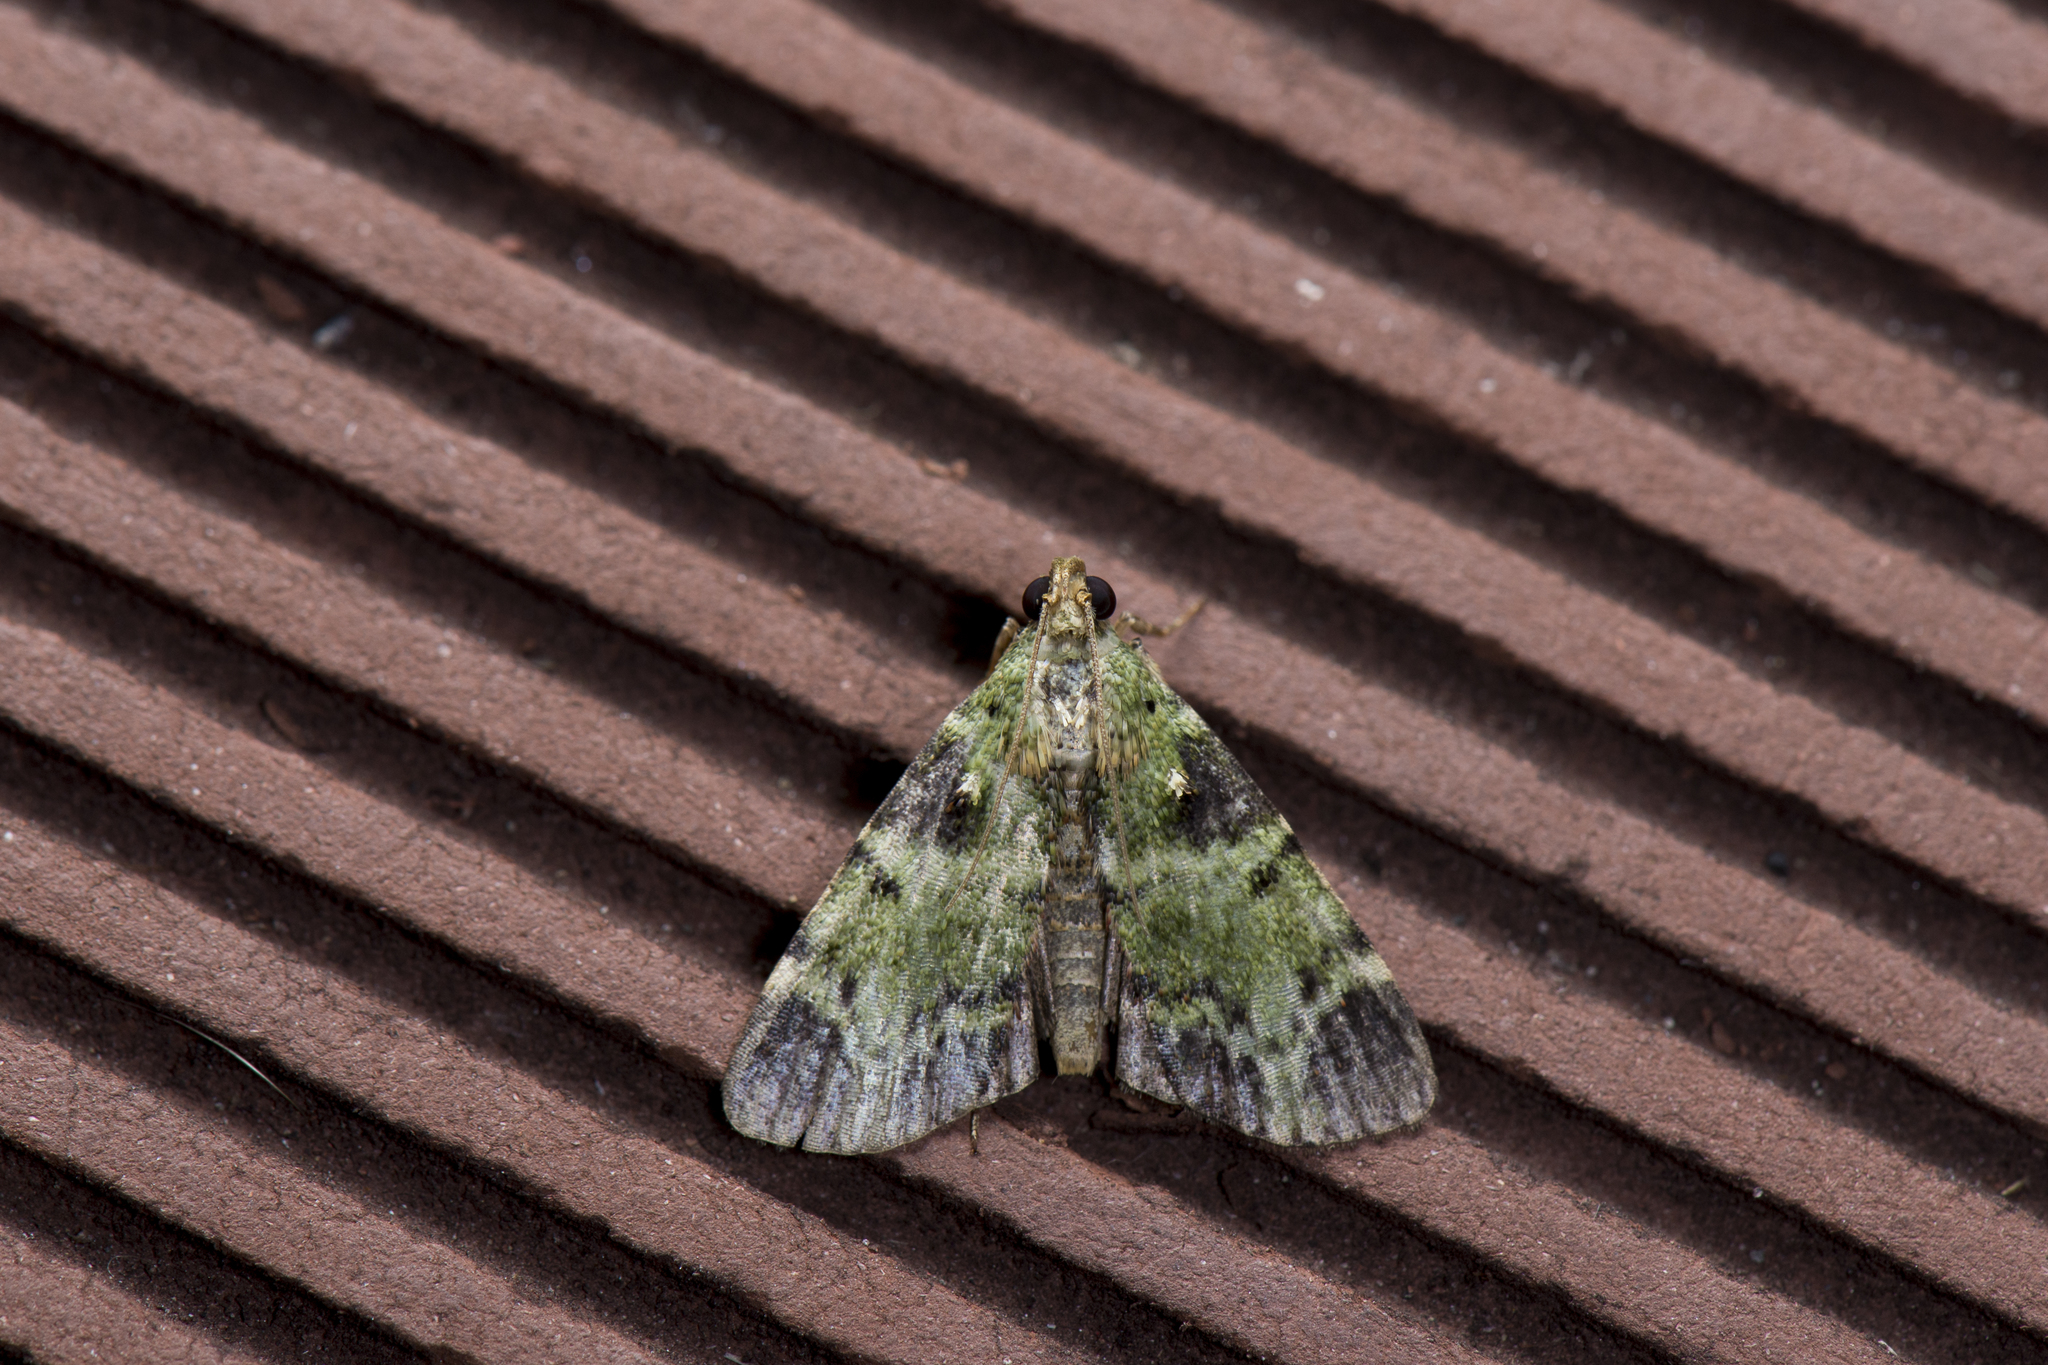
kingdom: Animalia
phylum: Arthropoda
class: Insecta
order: Lepidoptera
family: Pyralidae
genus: Orthaga
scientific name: Orthaga olivacea
